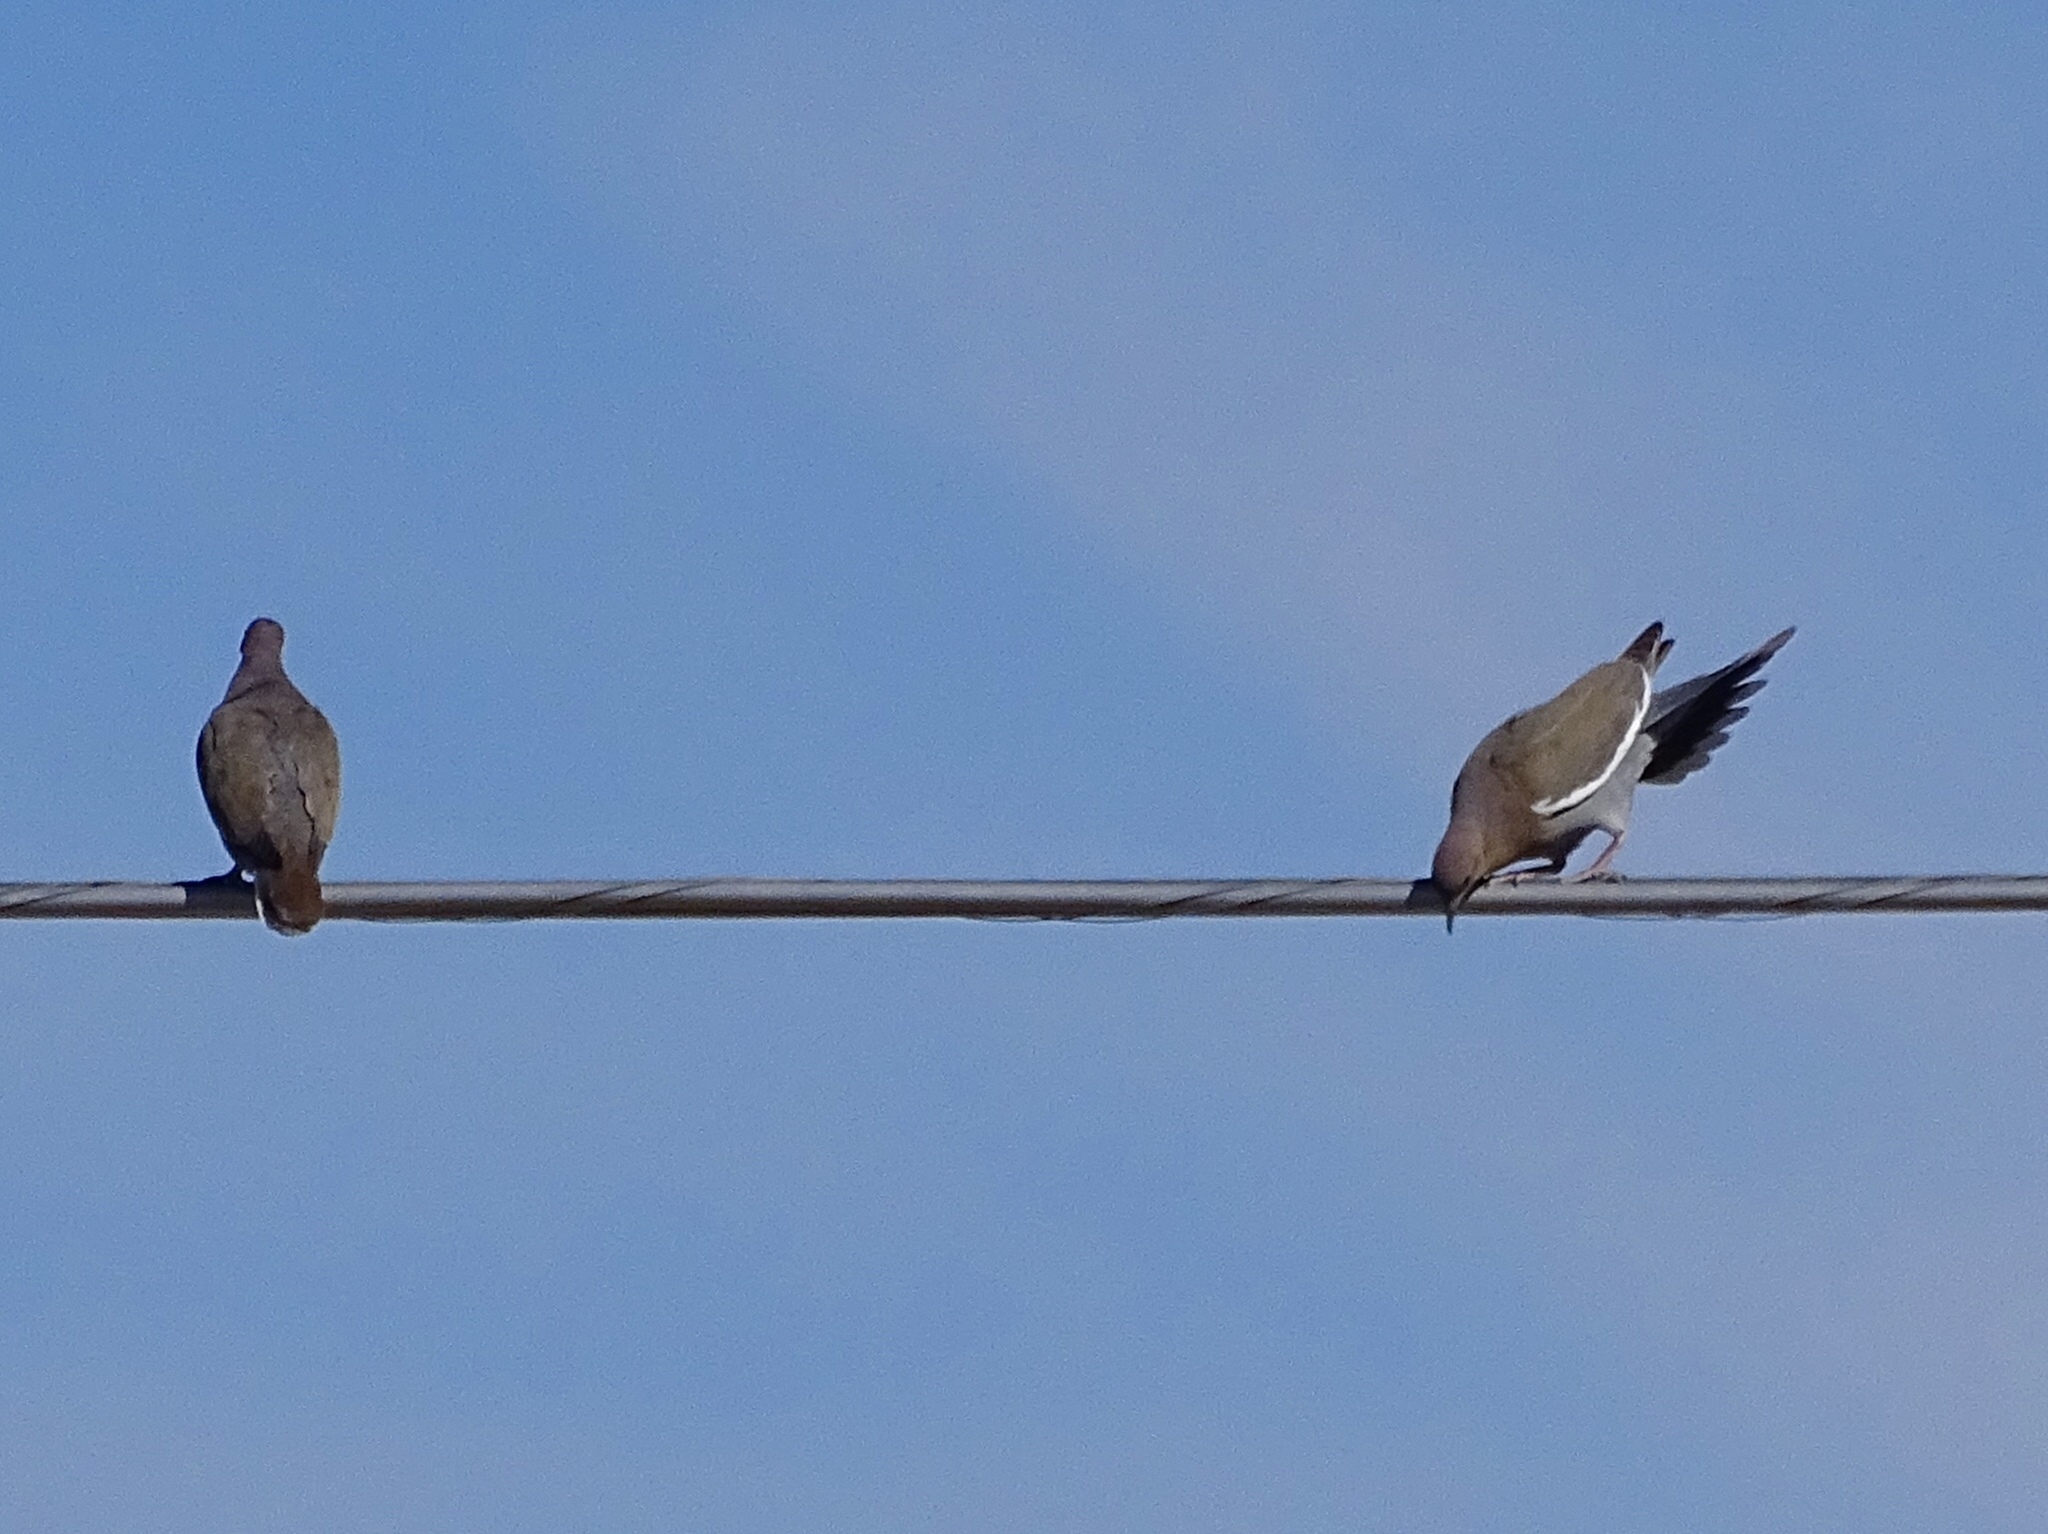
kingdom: Animalia
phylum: Chordata
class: Aves
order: Columbiformes
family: Columbidae
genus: Zenaida
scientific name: Zenaida asiatica
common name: White-winged dove
